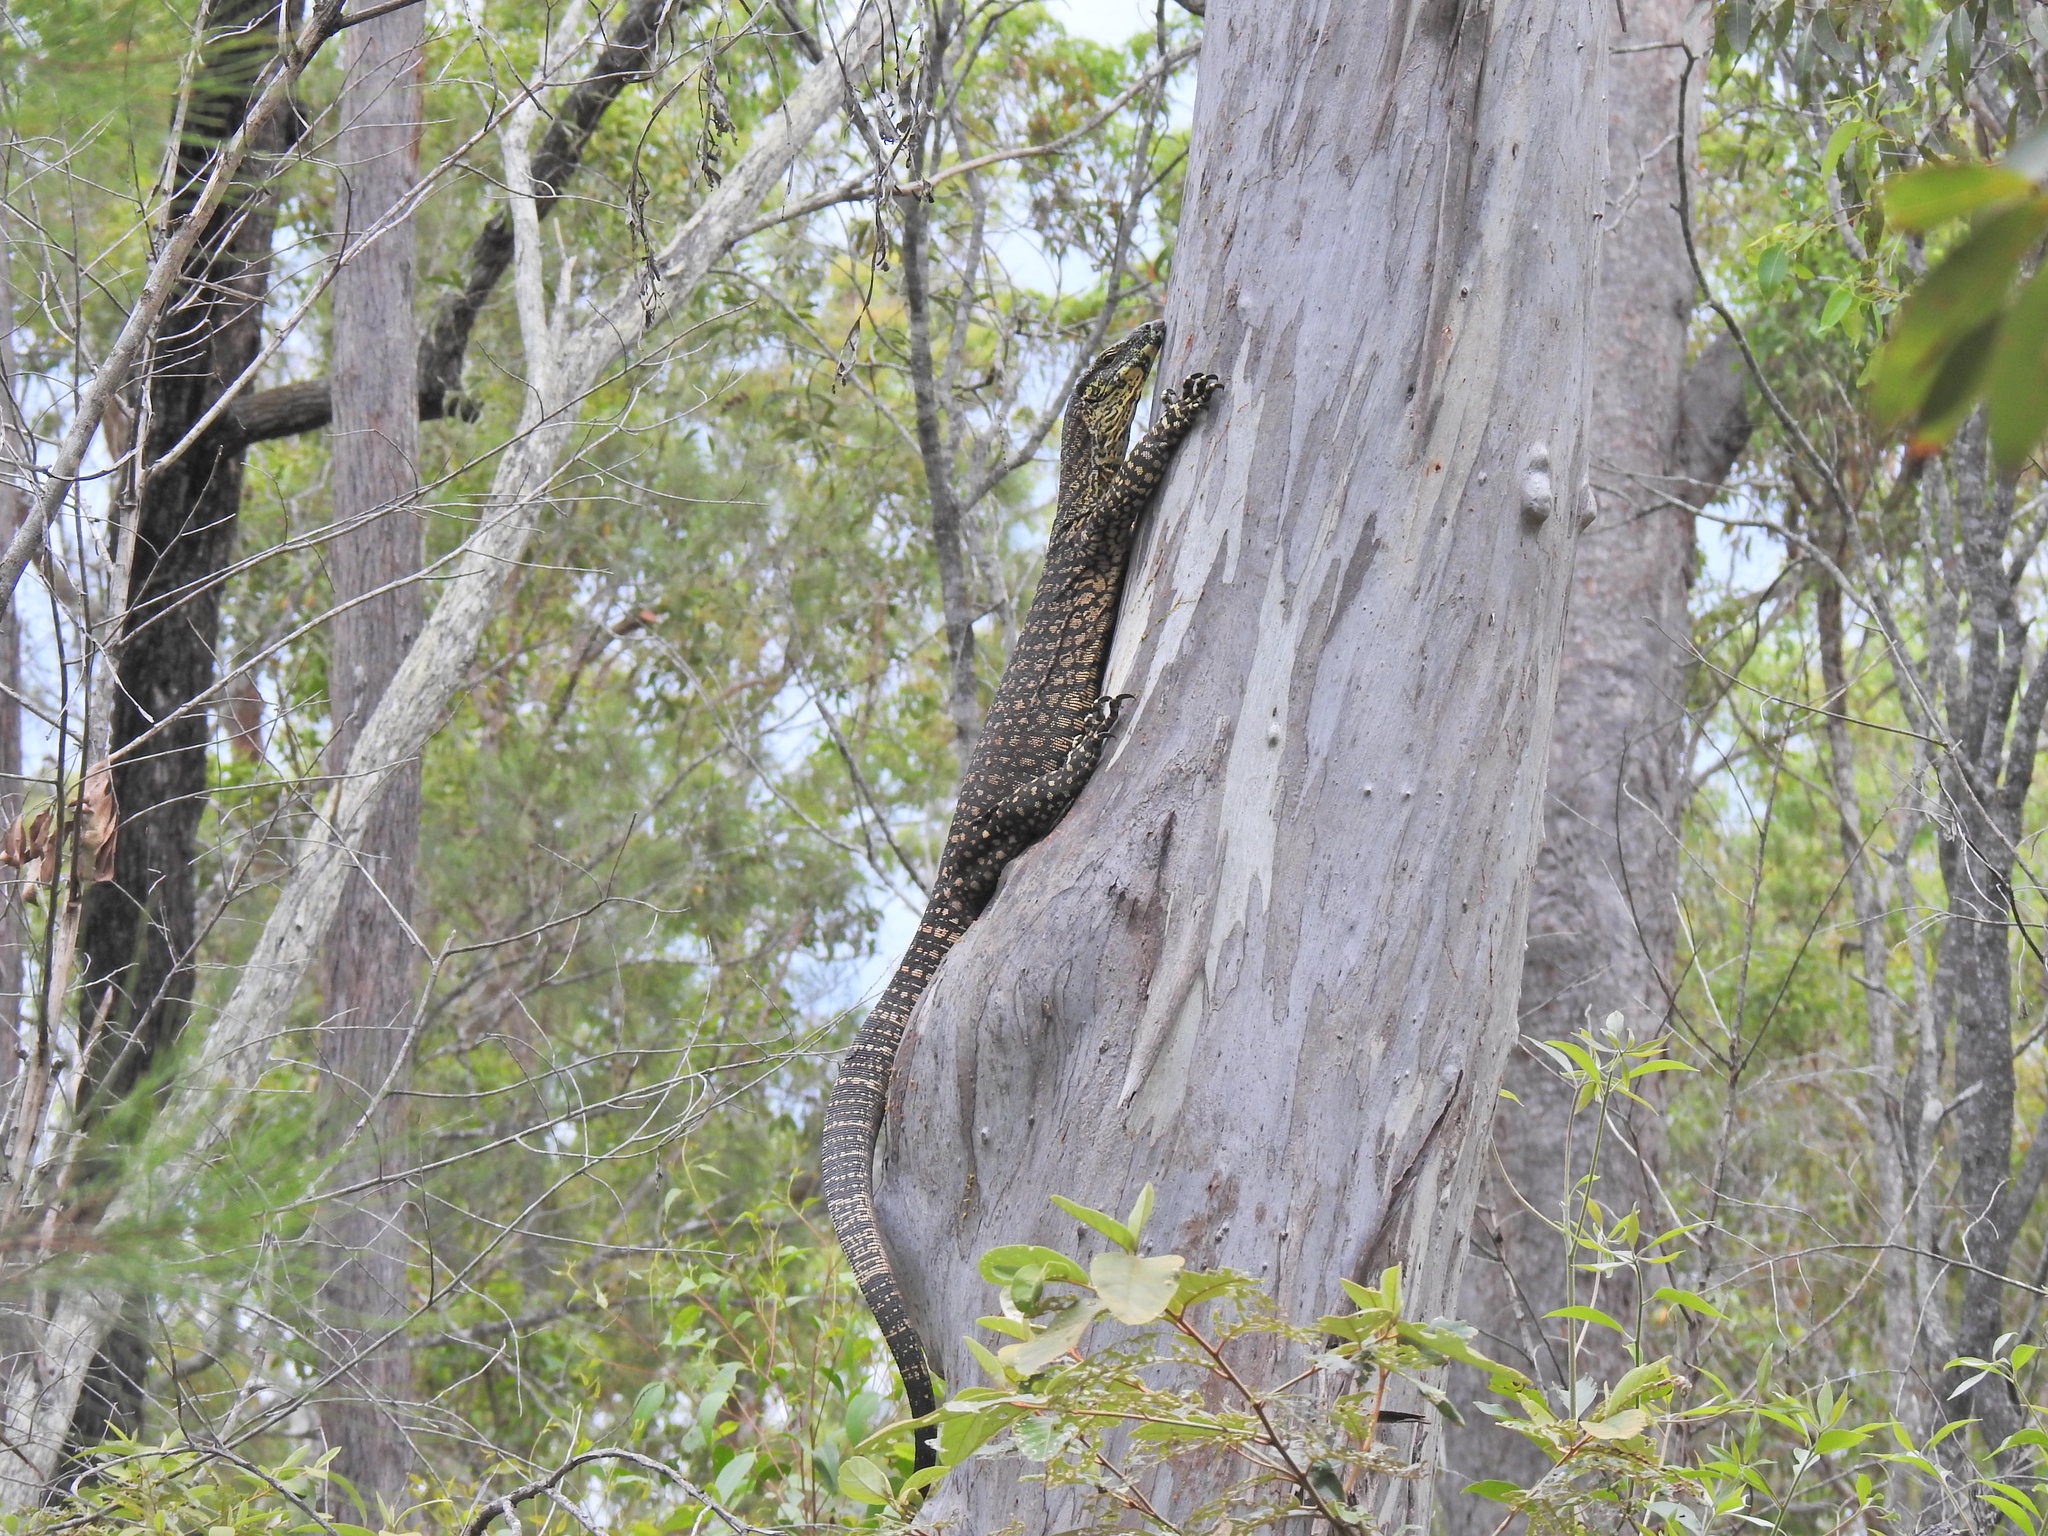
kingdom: Animalia
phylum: Chordata
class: Squamata
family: Varanidae
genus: Varanus
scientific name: Varanus varius
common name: Lace monitor
